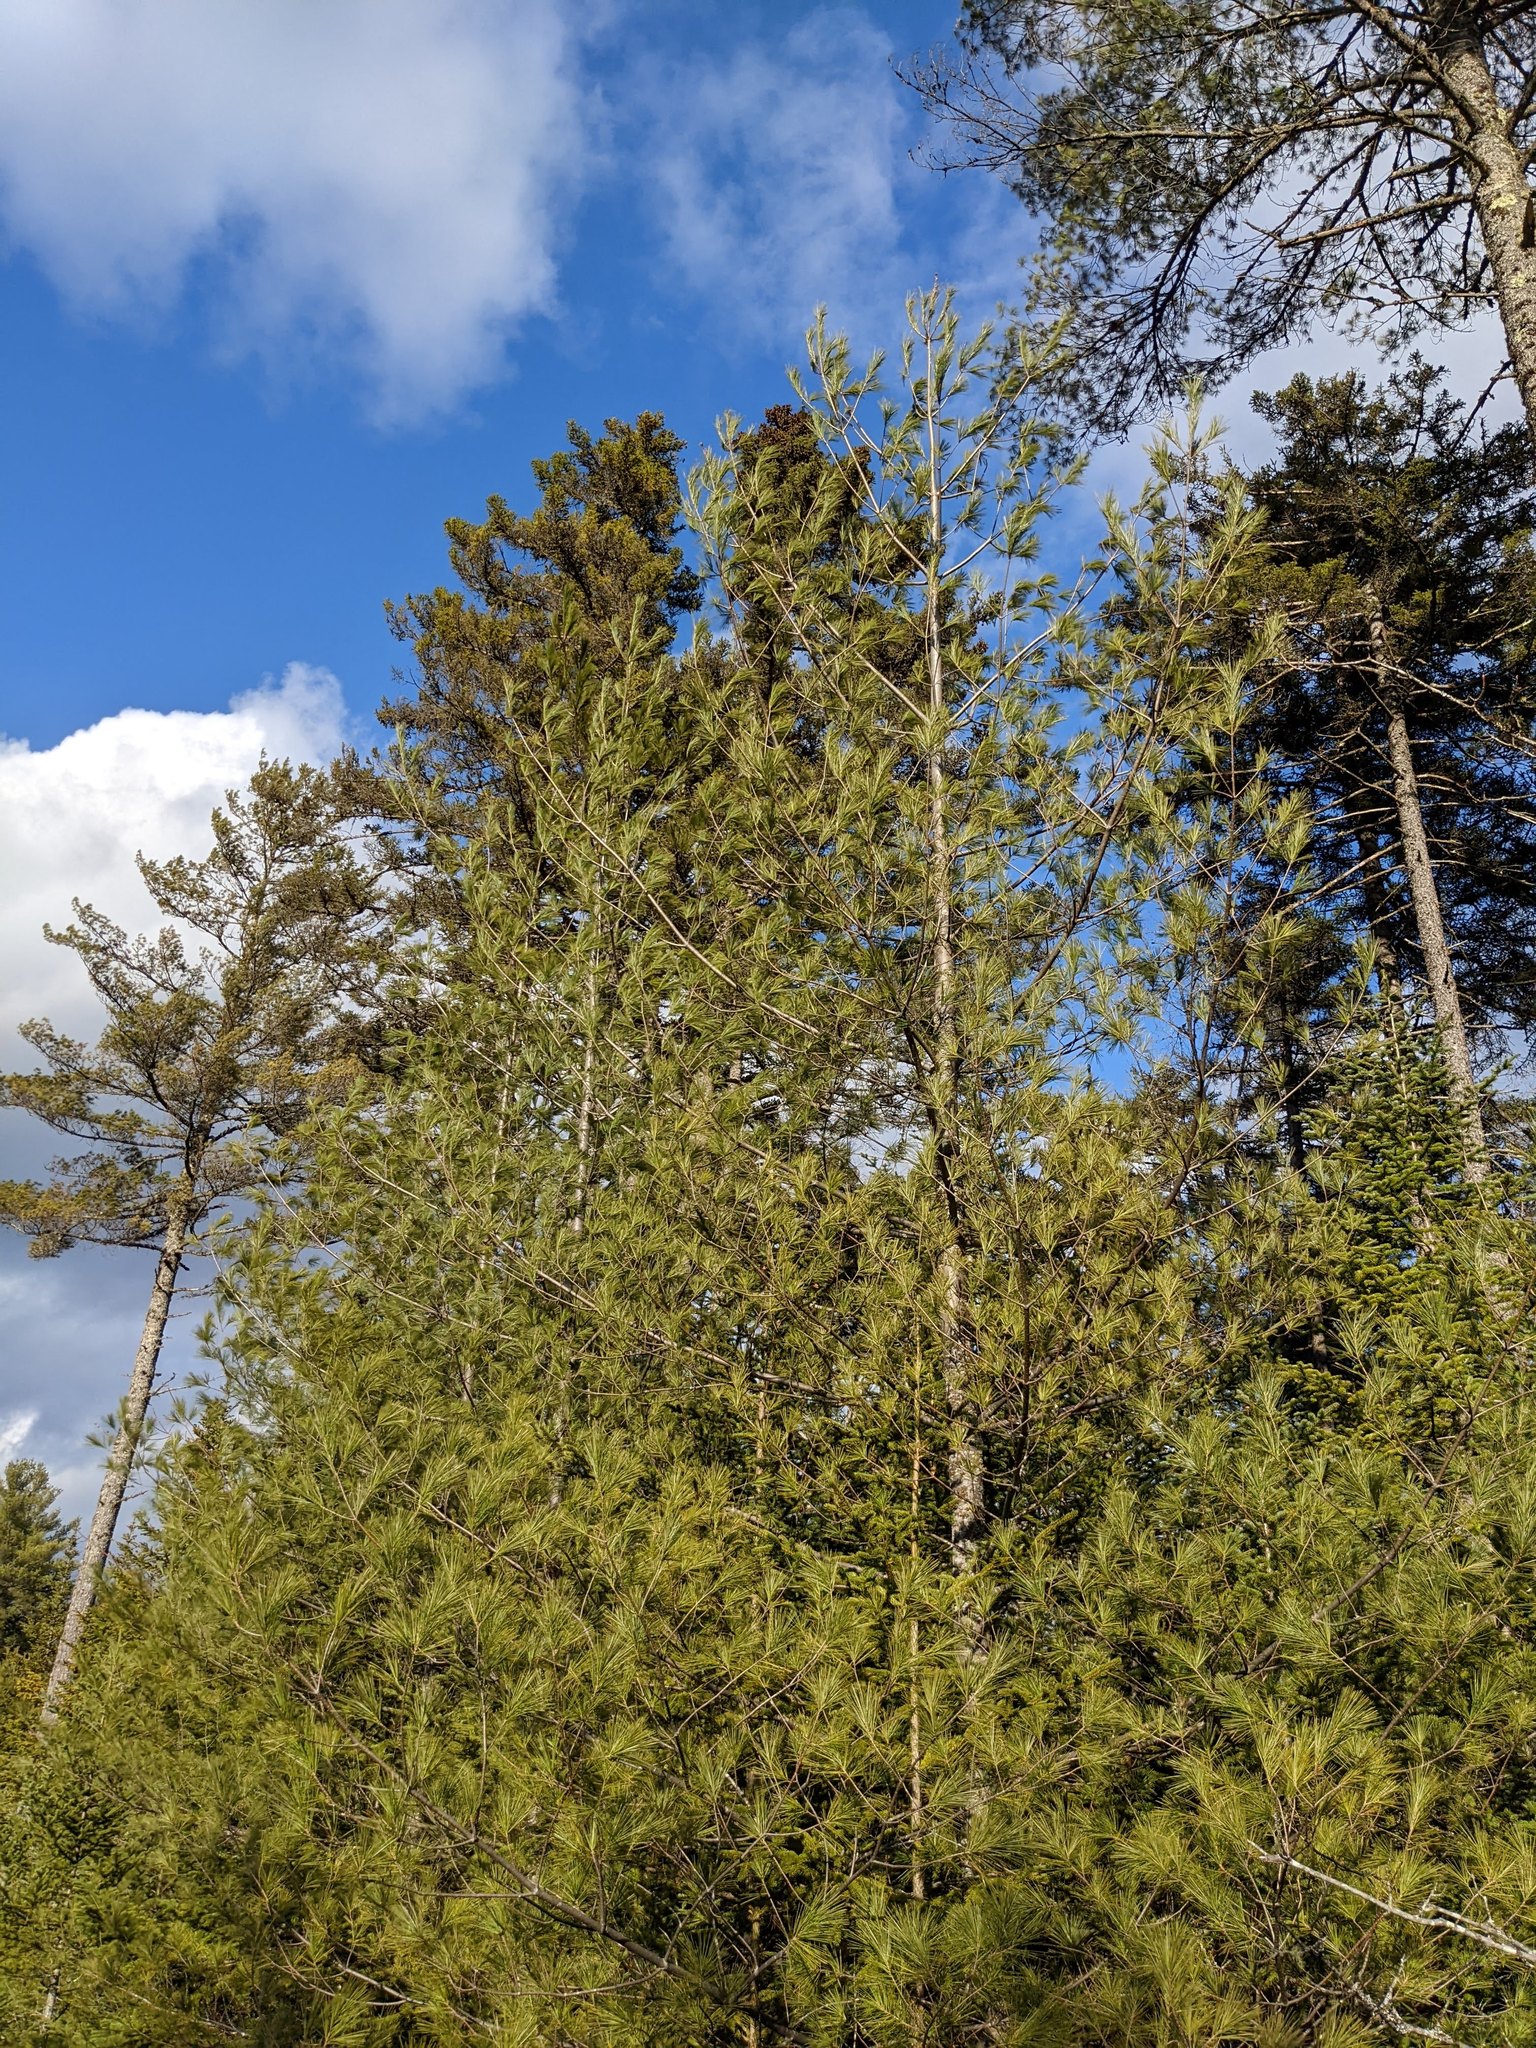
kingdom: Plantae
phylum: Tracheophyta
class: Pinopsida
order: Pinales
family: Pinaceae
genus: Pinus
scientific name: Pinus strobus
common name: Weymouth pine
